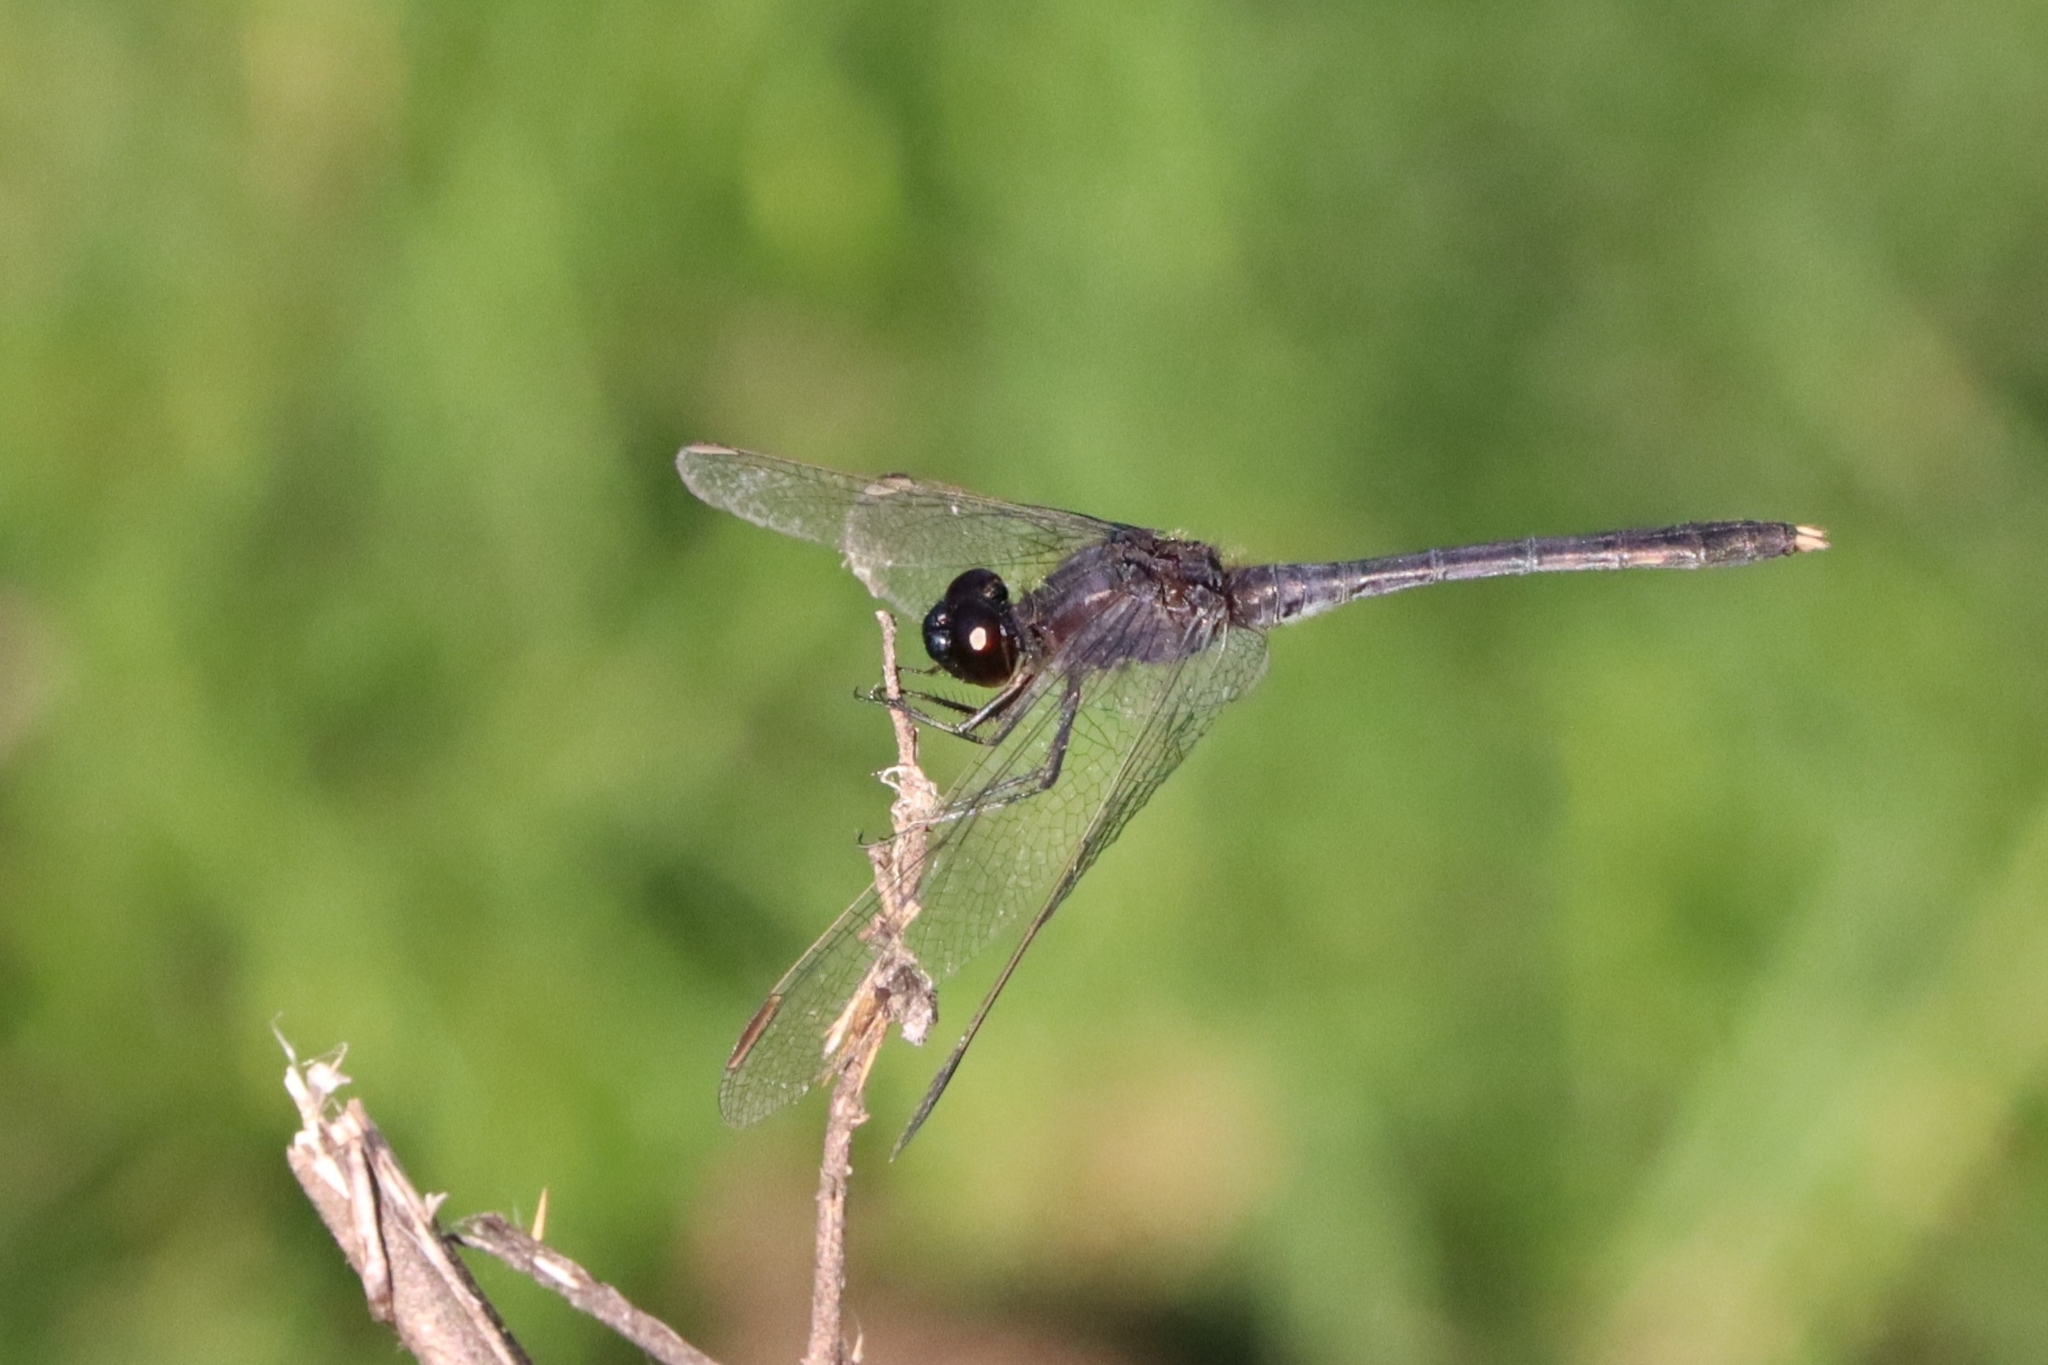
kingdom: Animalia
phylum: Arthropoda
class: Insecta
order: Odonata
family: Libellulidae
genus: Erythrodiplax
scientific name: Erythrodiplax nigricans
